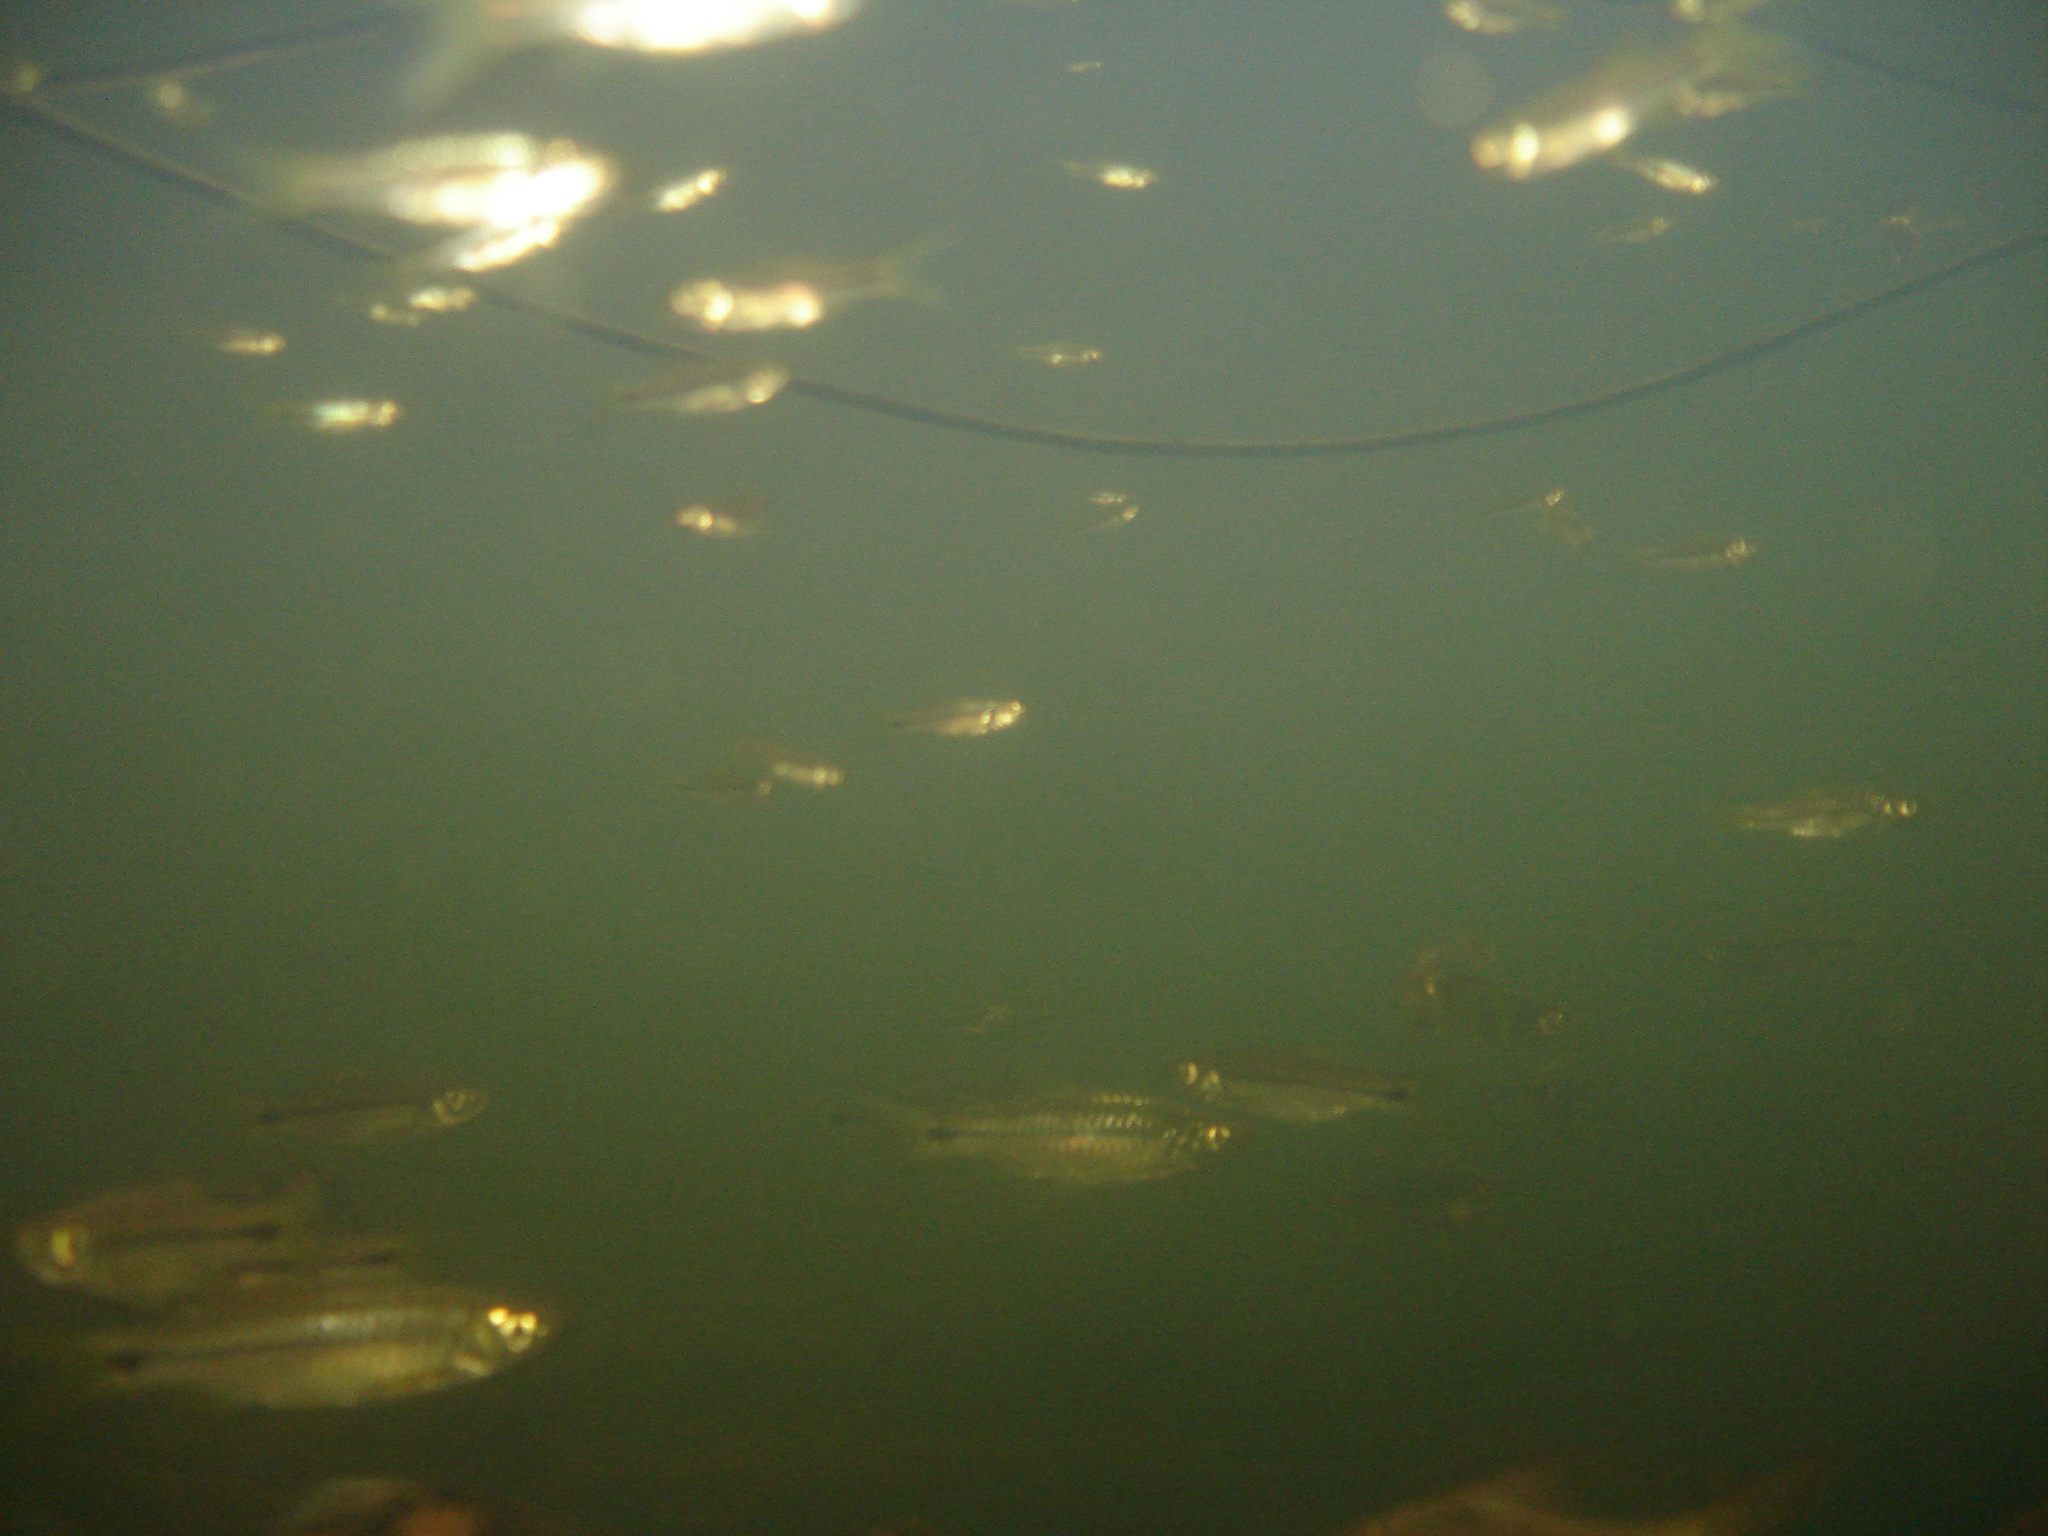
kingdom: Animalia
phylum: Chordata
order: Cypriniformes
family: Cyprinidae
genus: Rasbora
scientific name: Rasbora paviana
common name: Sidestripe rasbora
